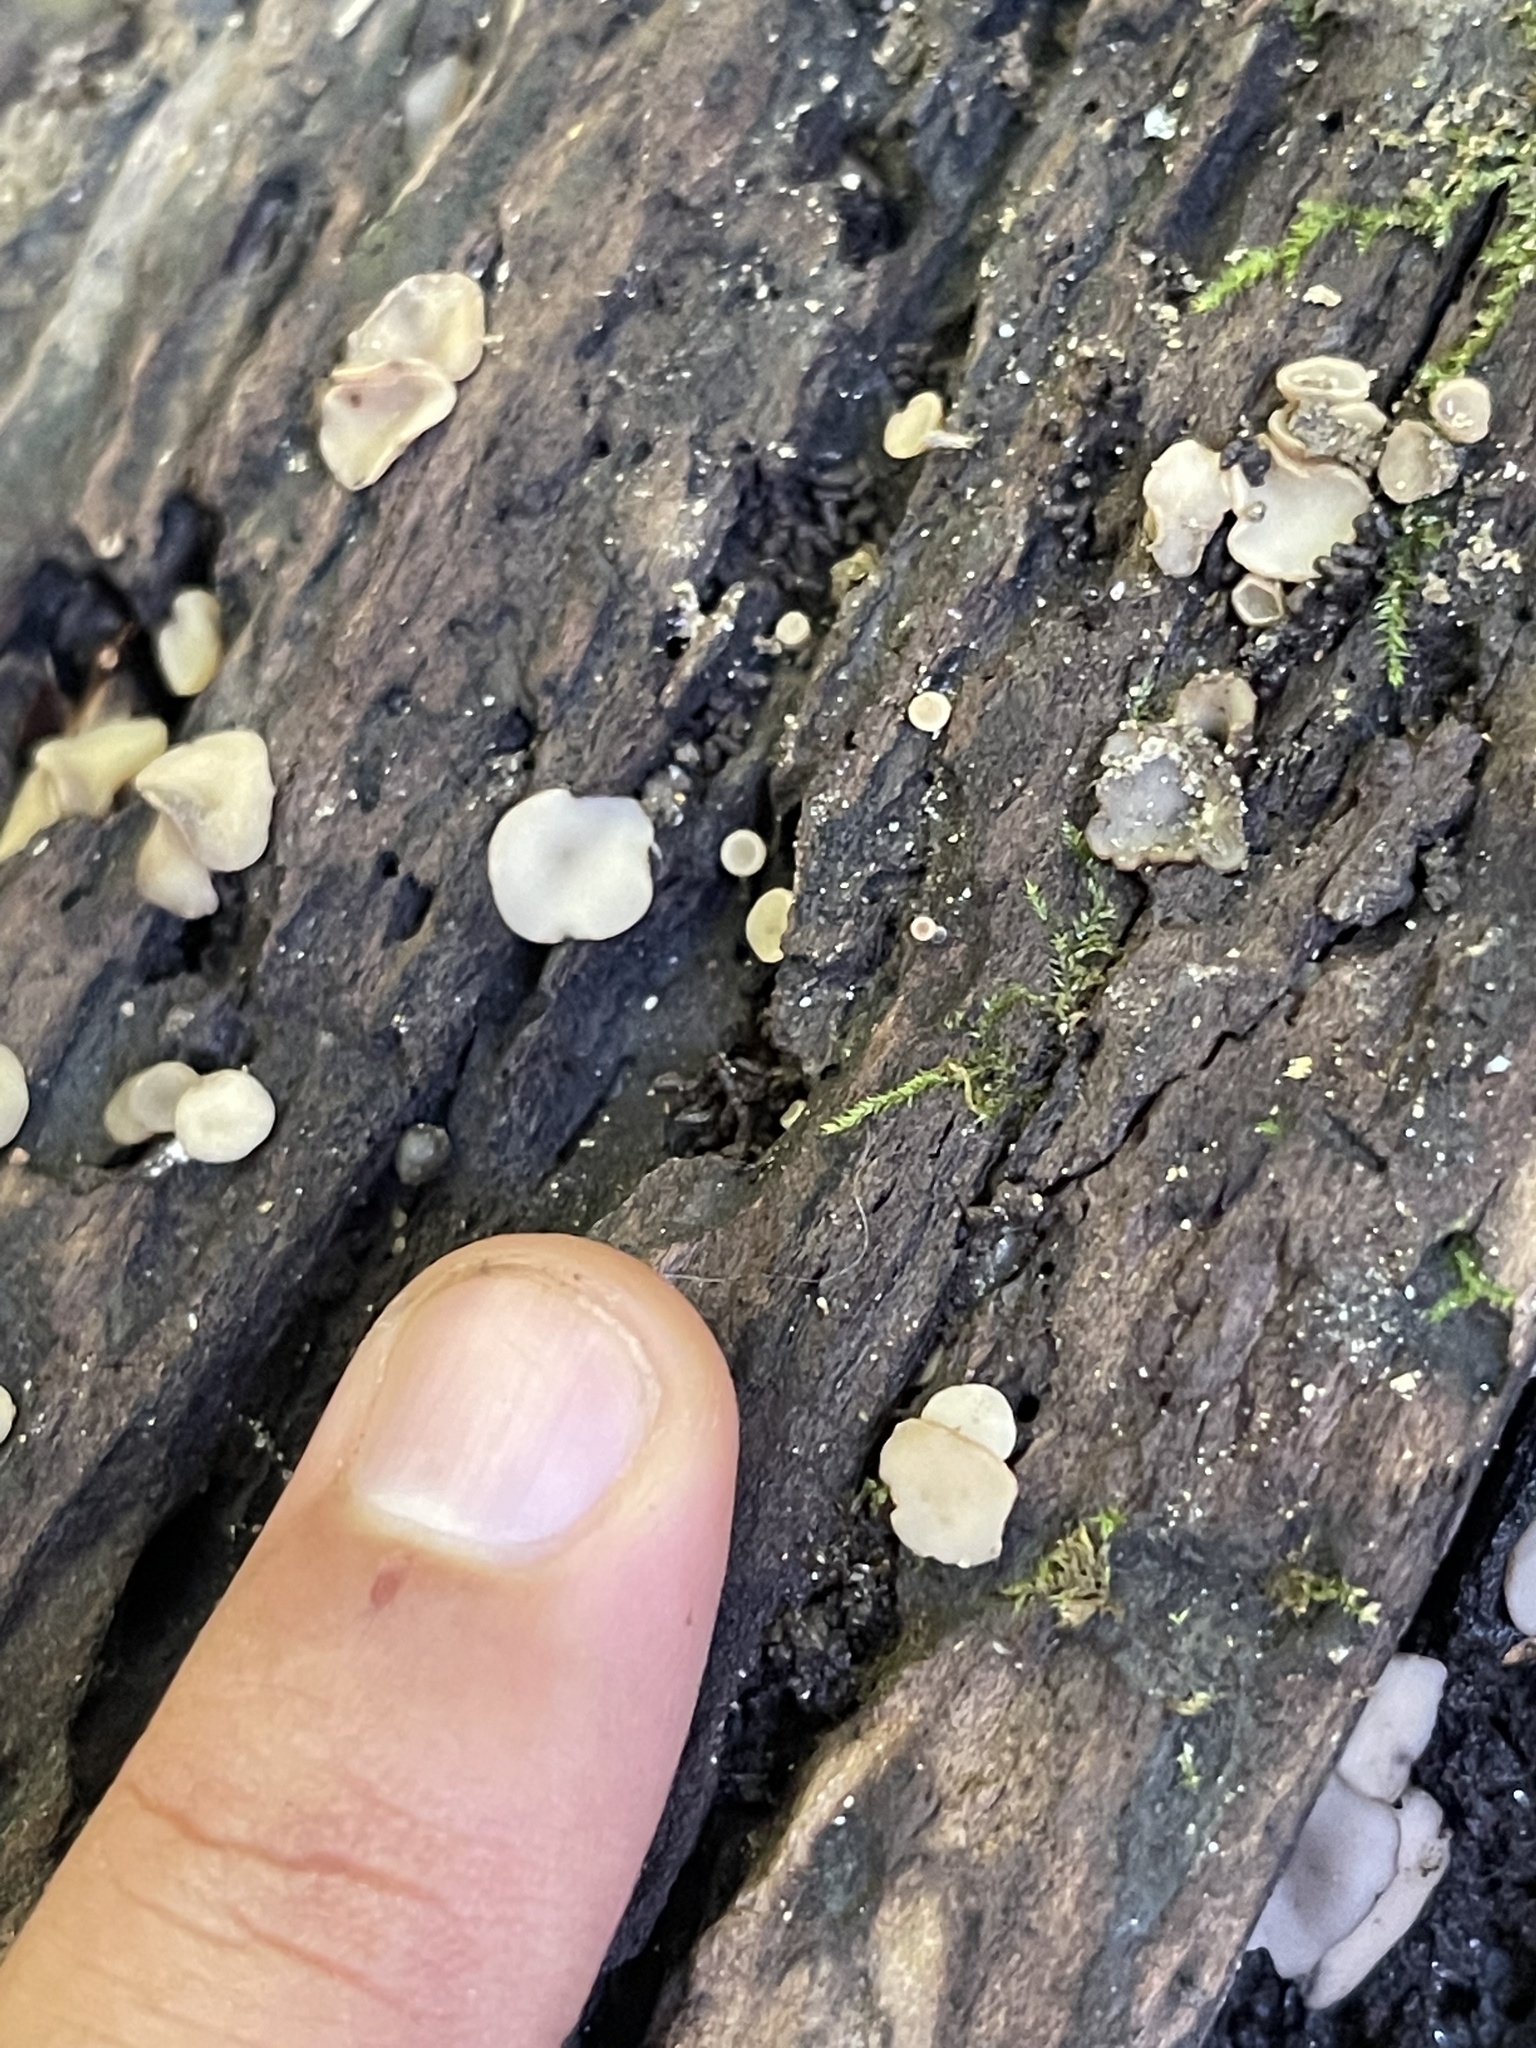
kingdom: Fungi
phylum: Ascomycota
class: Leotiomycetes
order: Helotiales
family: Helotiaceae
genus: Tatraea
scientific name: Tatraea macrospora
